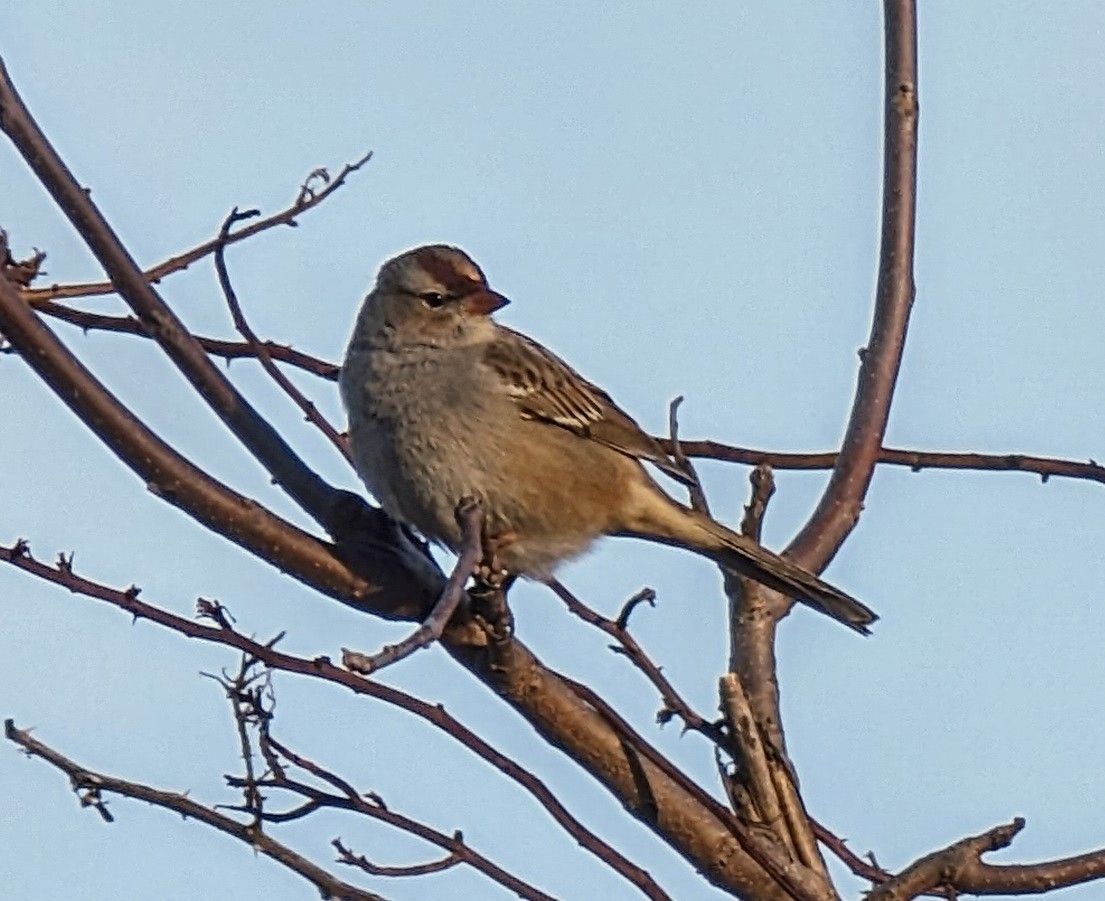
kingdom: Animalia
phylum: Chordata
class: Aves
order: Passeriformes
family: Passerellidae
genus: Zonotrichia
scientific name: Zonotrichia leucophrys
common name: White-crowned sparrow
